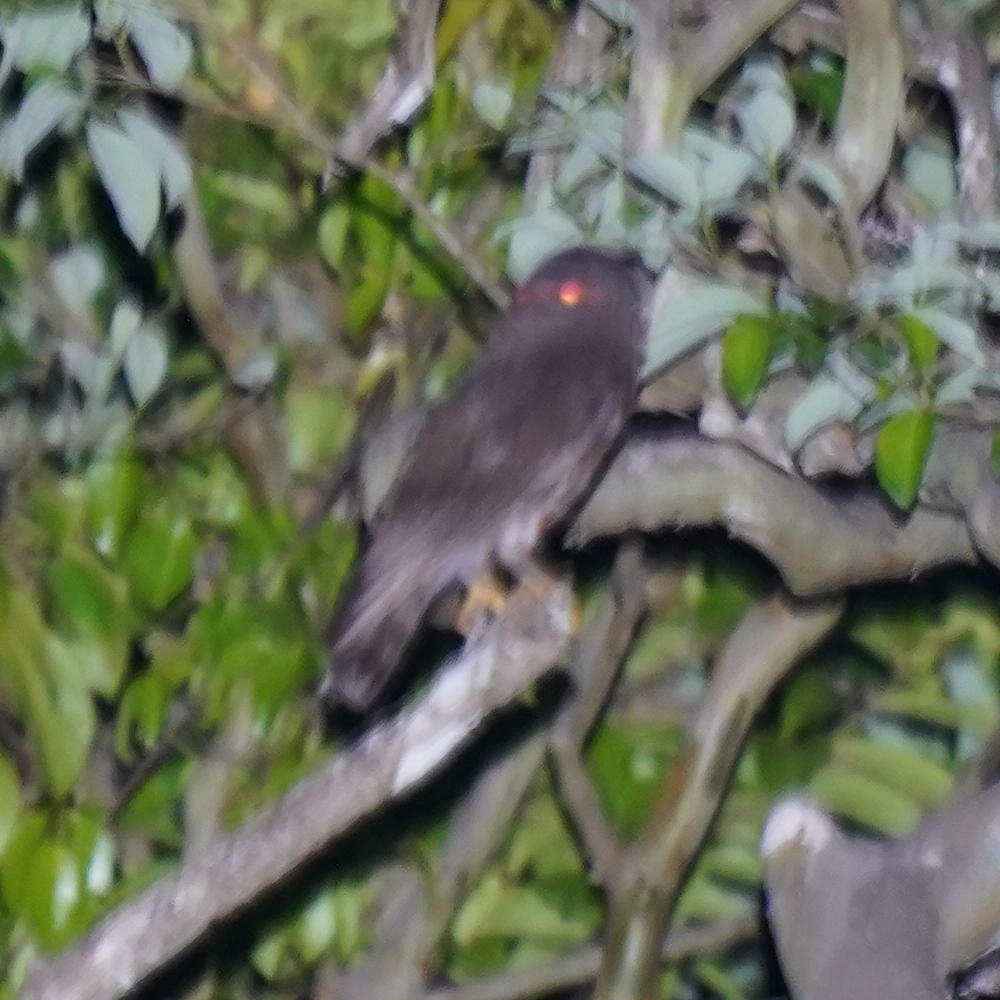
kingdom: Animalia
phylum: Chordata
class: Aves
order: Strigiformes
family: Strigidae
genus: Ninox
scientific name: Ninox scutulata
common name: Brown hawk-owl
